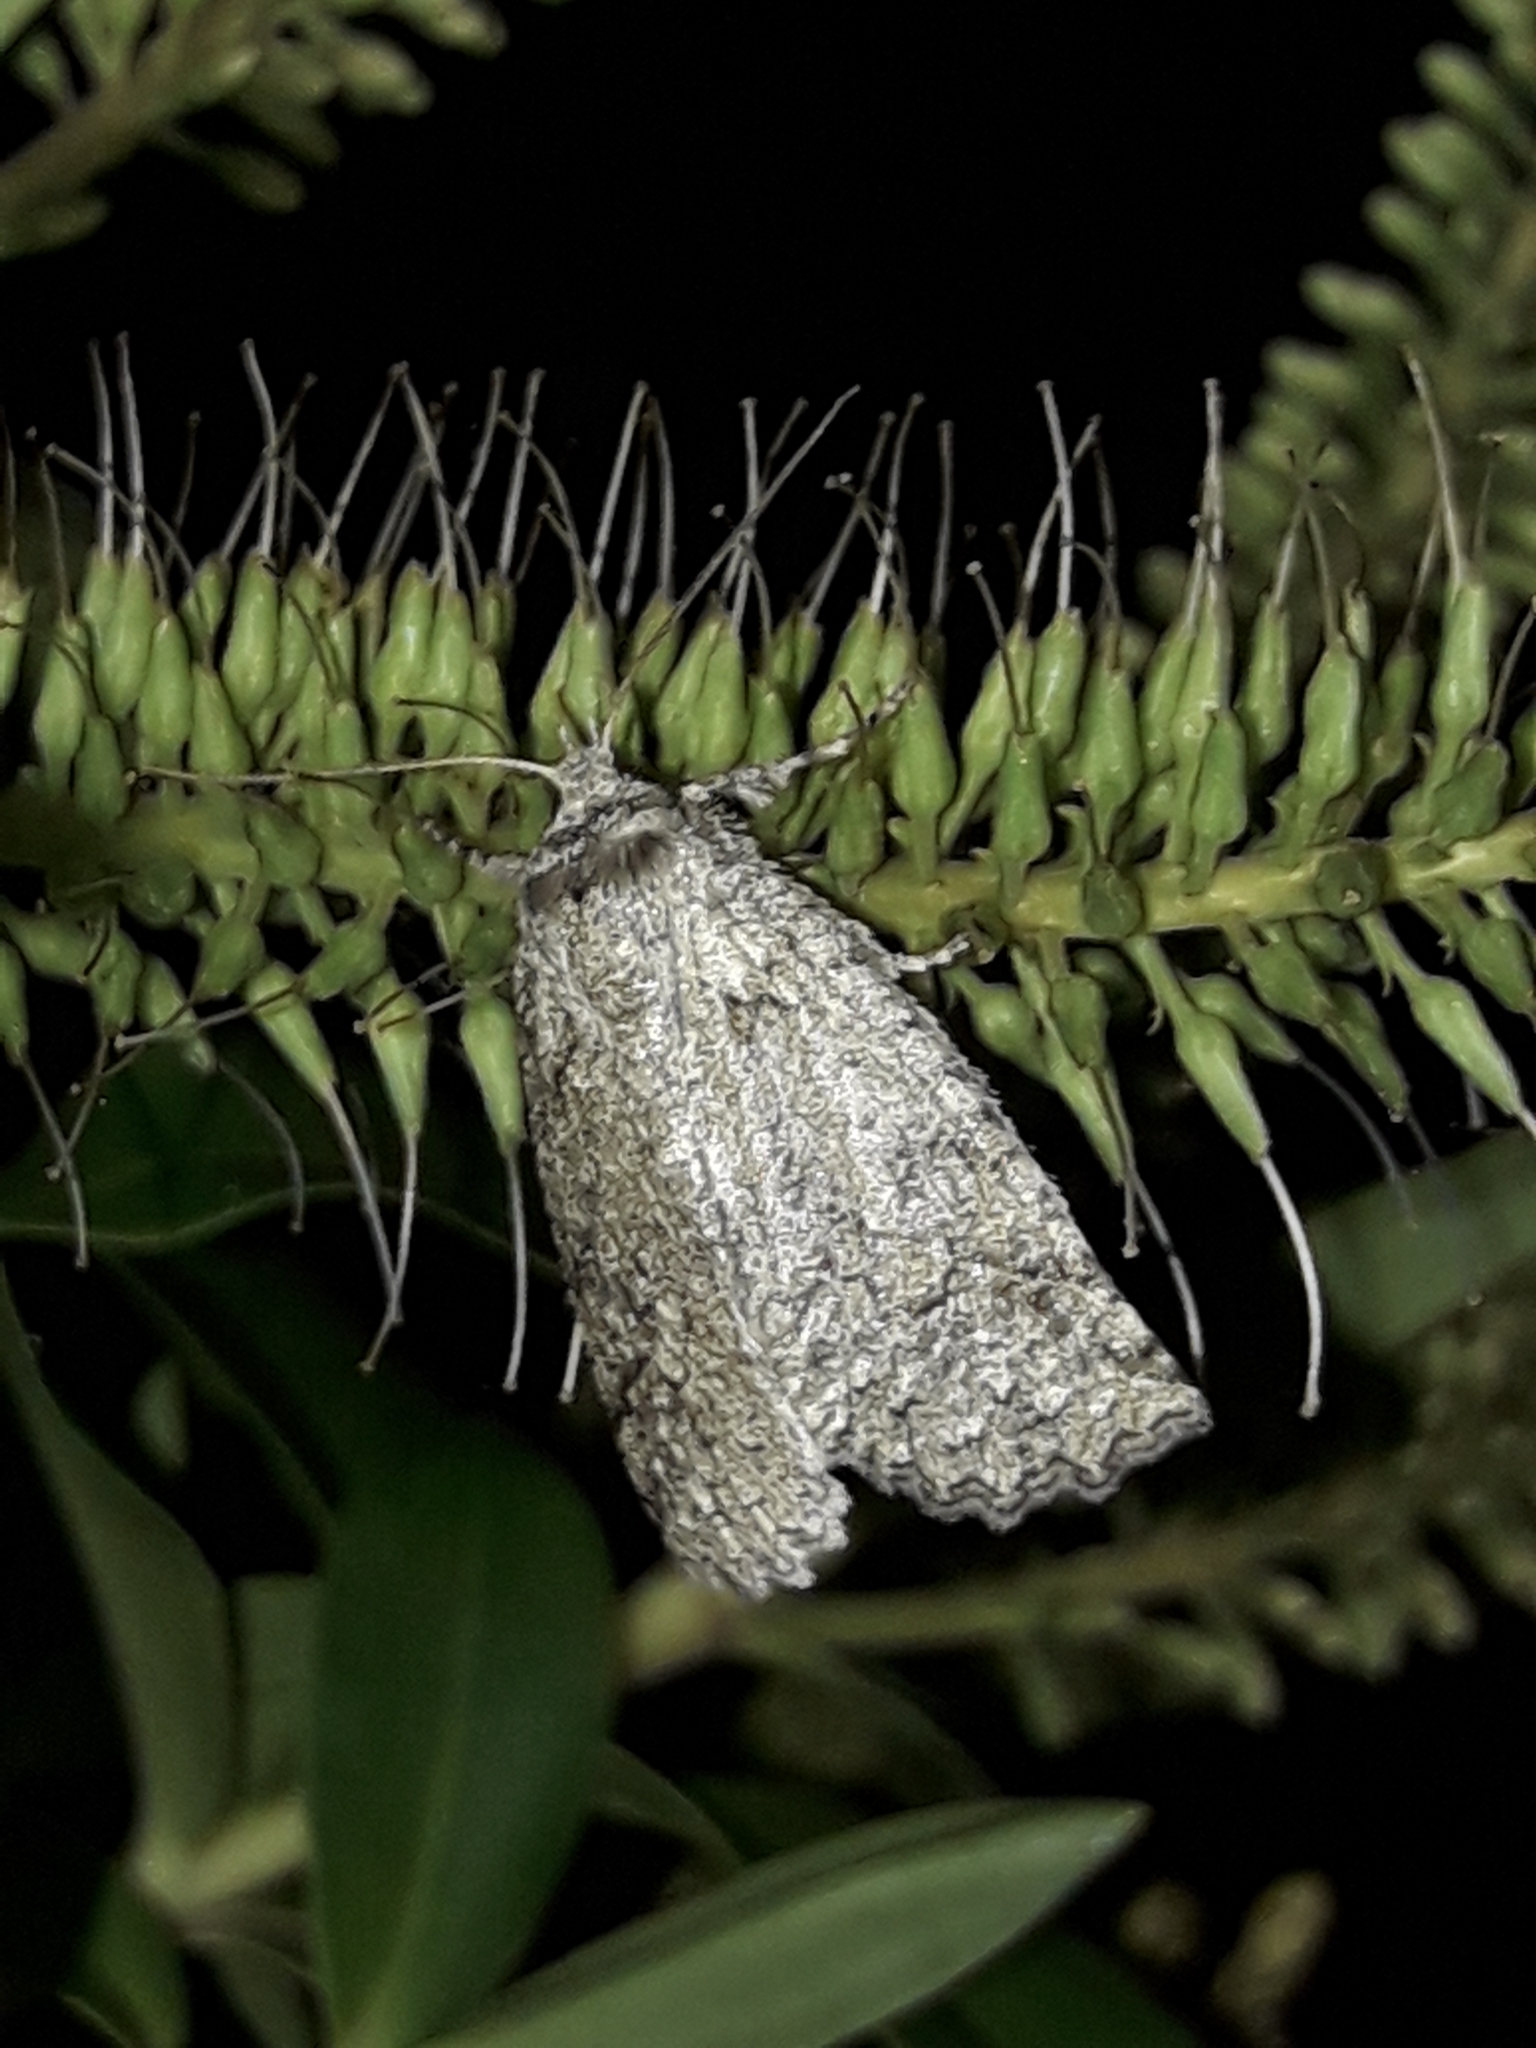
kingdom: Animalia
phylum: Arthropoda
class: Insecta
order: Lepidoptera
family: Geometridae
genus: Declana
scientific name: Declana floccosa
